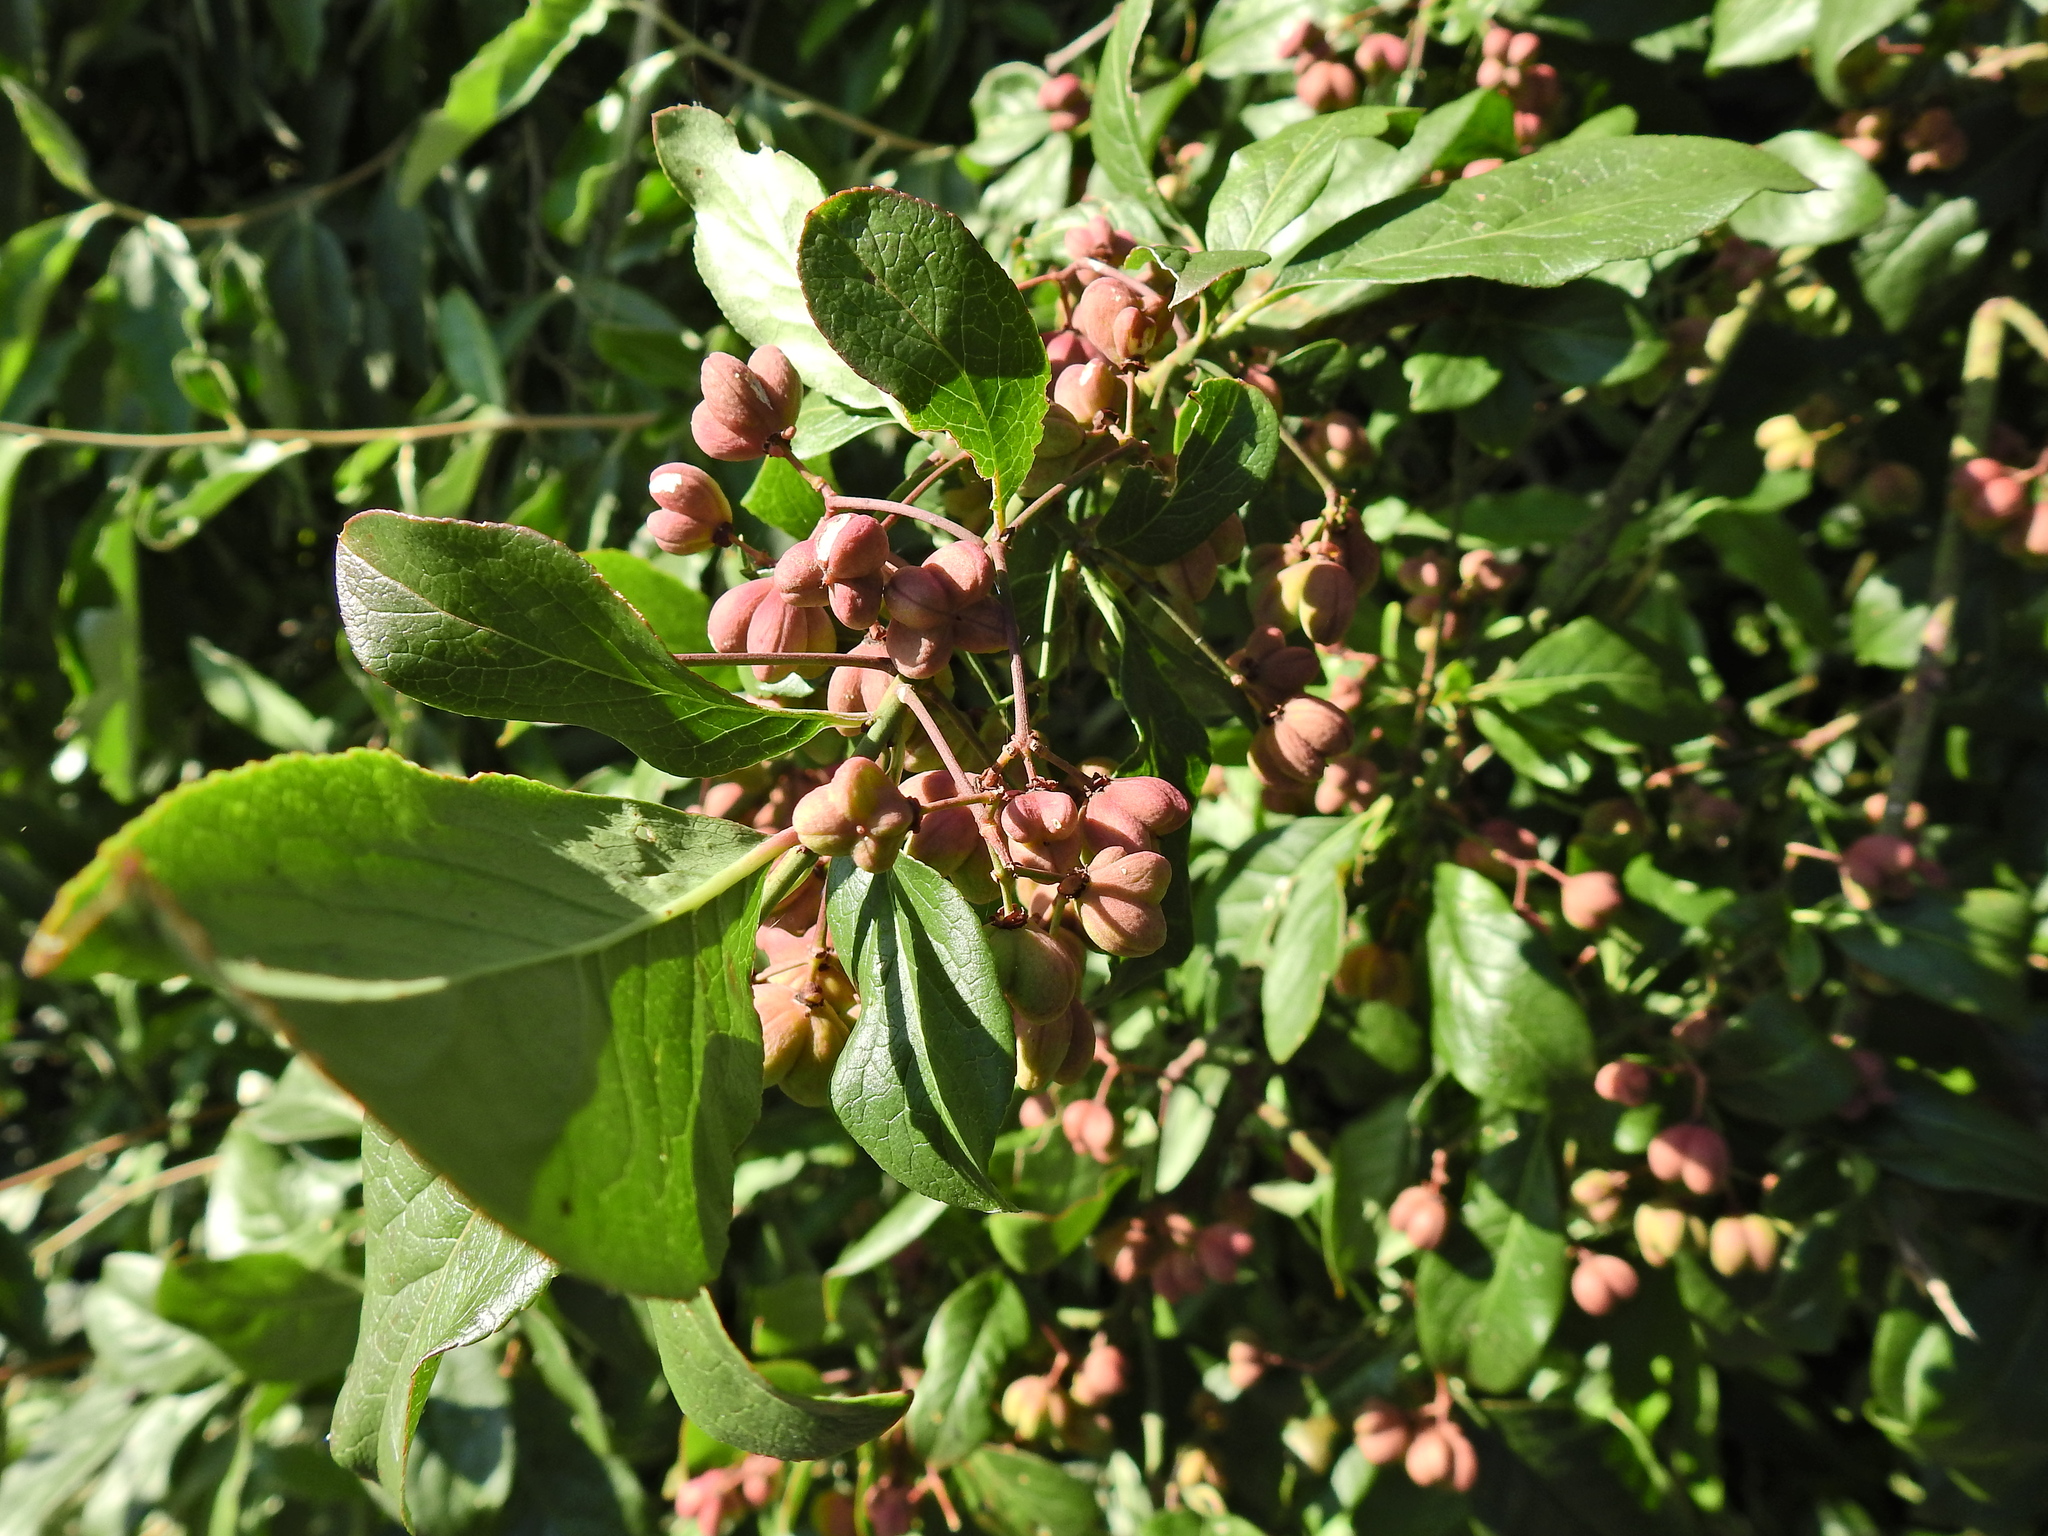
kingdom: Plantae
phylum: Tracheophyta
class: Magnoliopsida
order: Celastrales
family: Celastraceae
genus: Euonymus
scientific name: Euonymus europaeus
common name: Spindle
